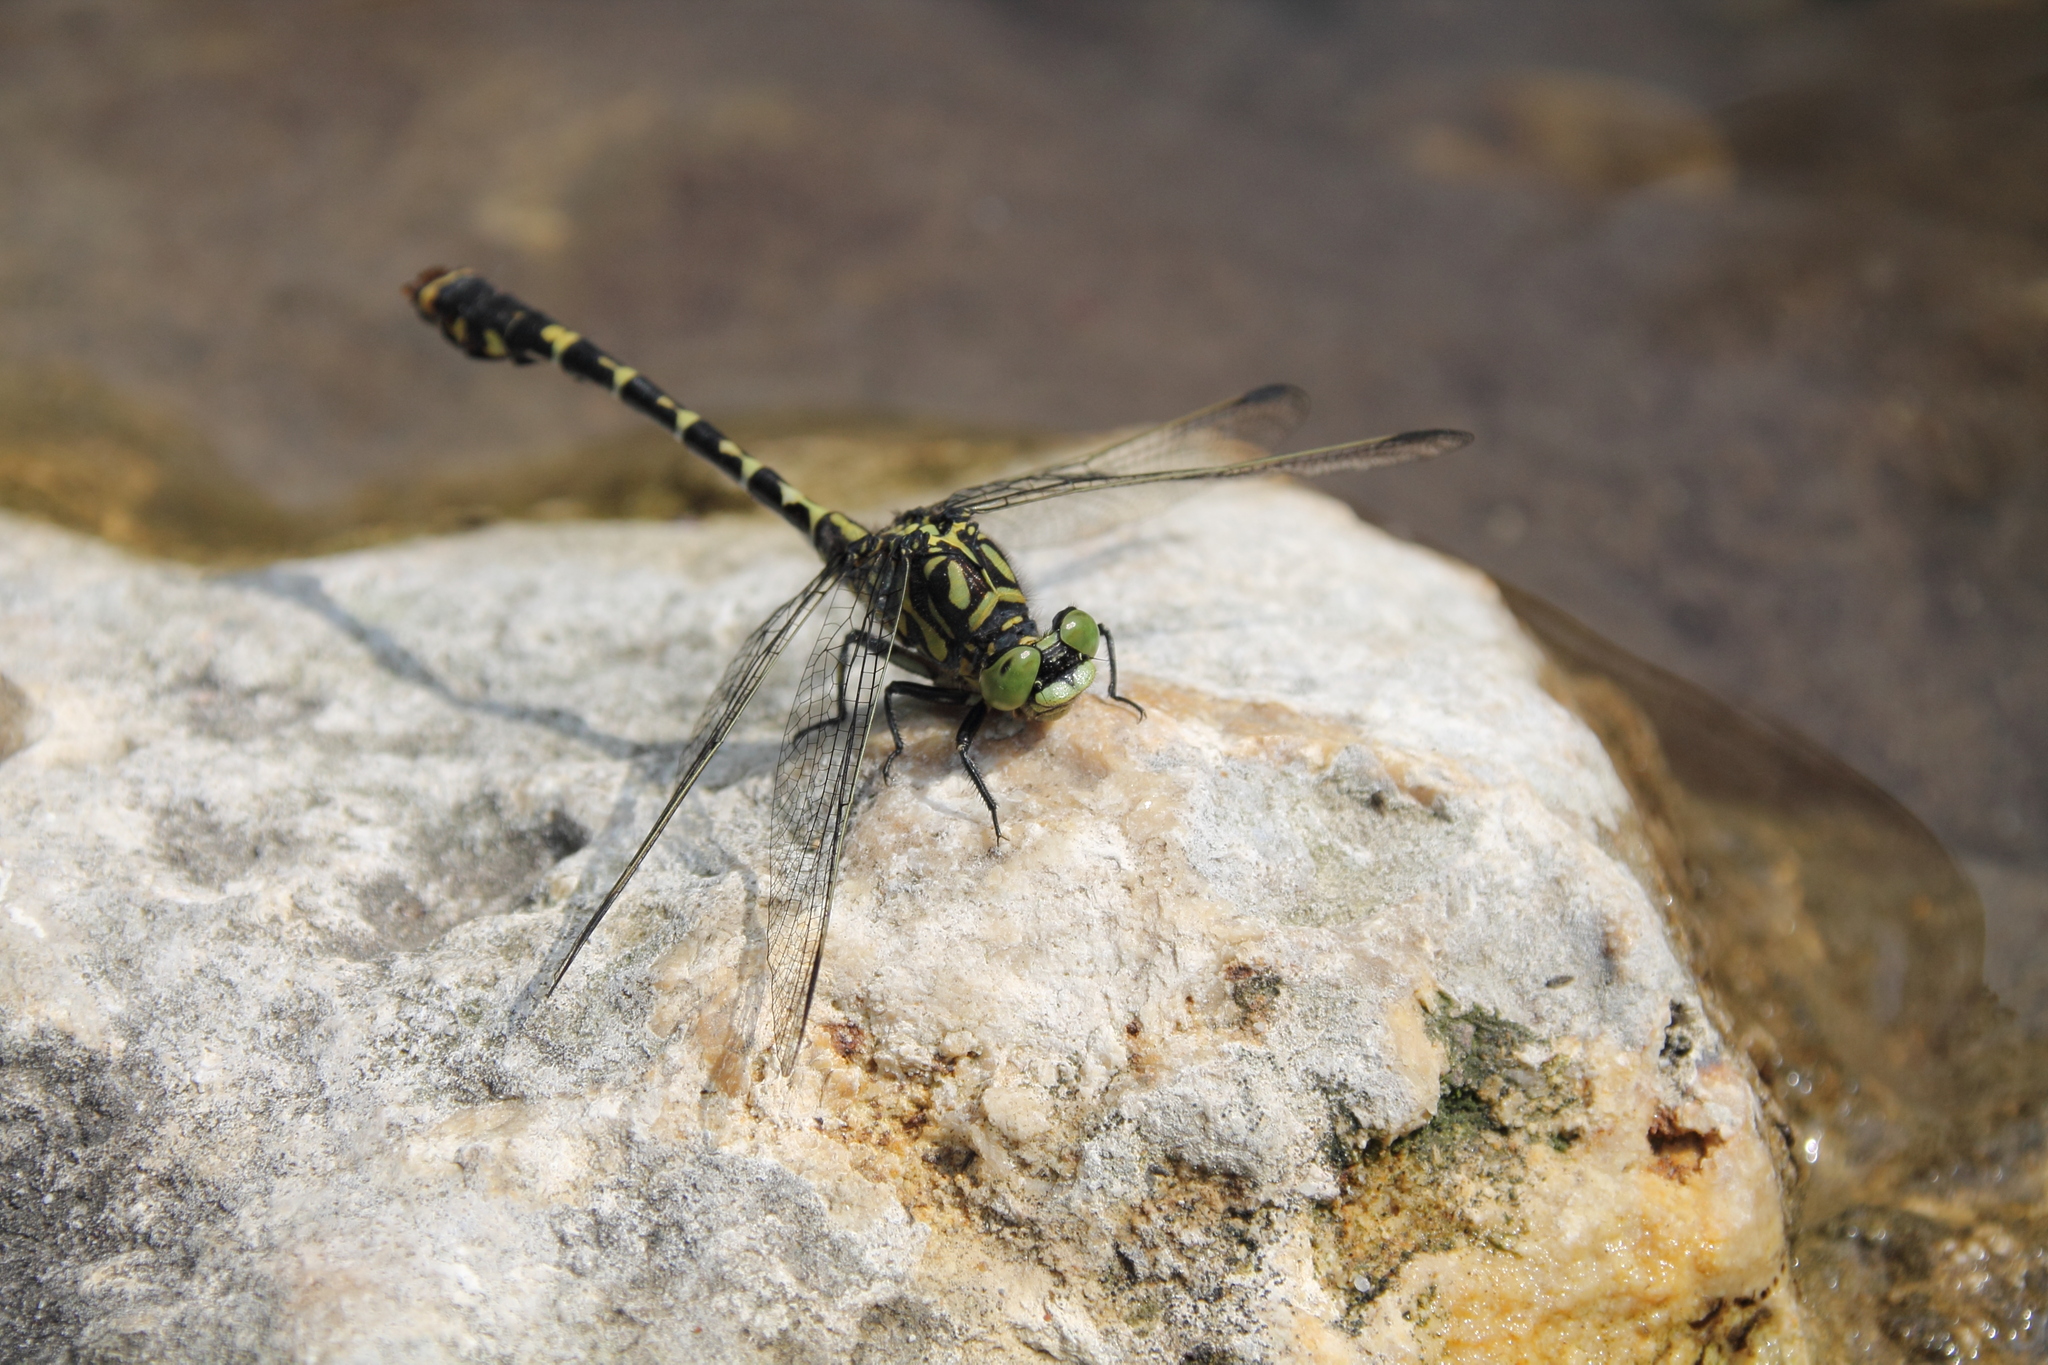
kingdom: Animalia
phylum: Arthropoda
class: Insecta
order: Odonata
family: Gomphidae
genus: Onychogomphus
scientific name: Onychogomphus forcipatus
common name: Small pincertail
